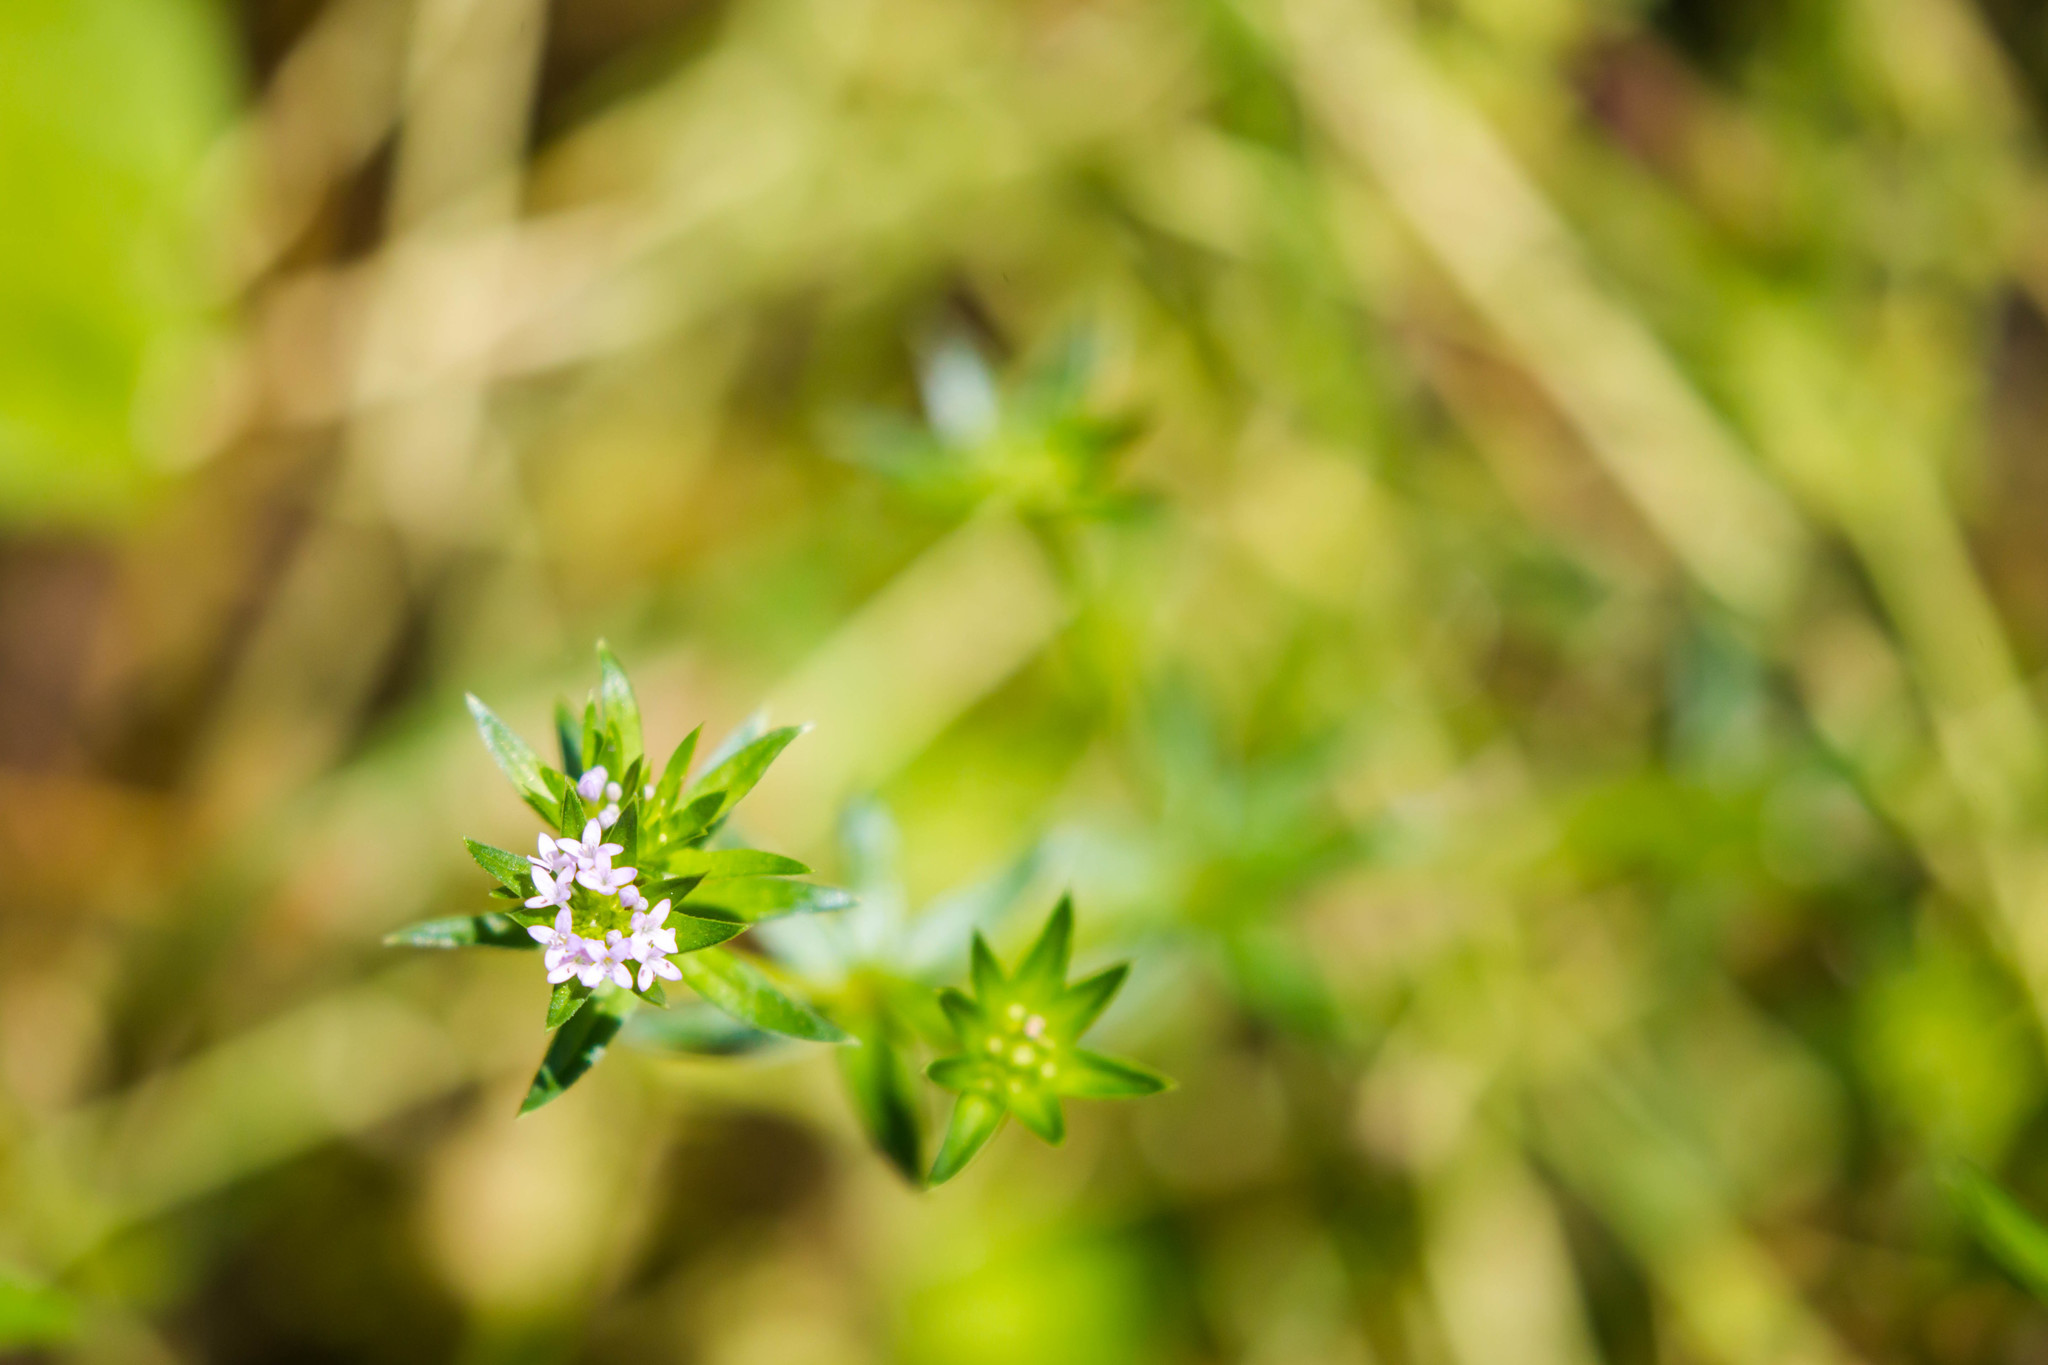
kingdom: Plantae
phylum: Tracheophyta
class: Magnoliopsida
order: Gentianales
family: Rubiaceae
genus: Sherardia
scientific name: Sherardia arvensis
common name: Field madder
